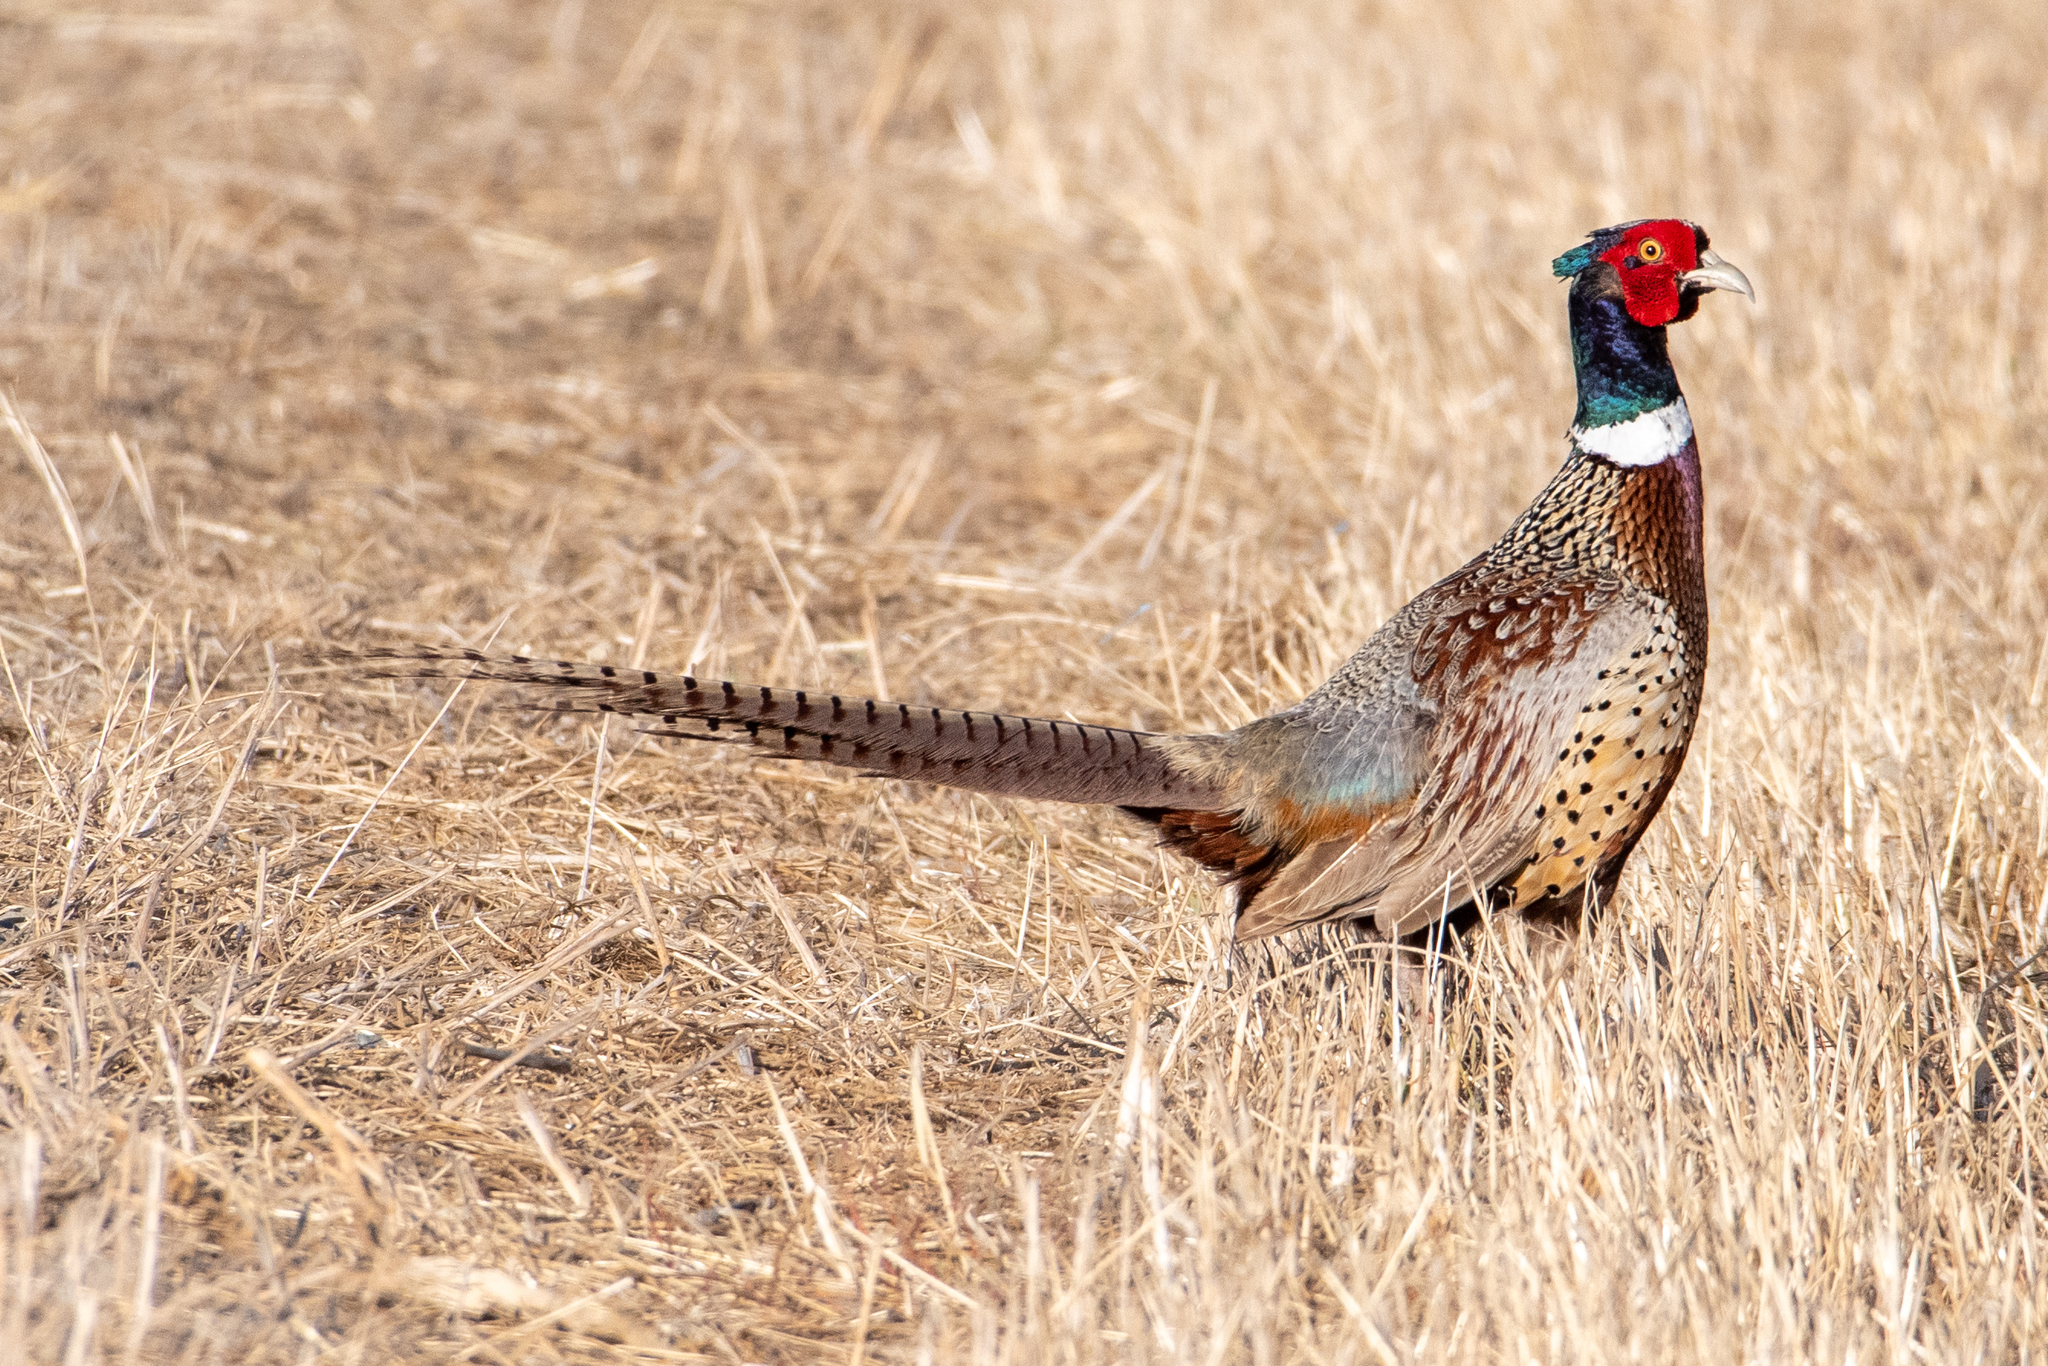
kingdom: Animalia
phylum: Chordata
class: Aves
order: Galliformes
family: Phasianidae
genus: Phasianus
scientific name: Phasianus colchicus
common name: Common pheasant
